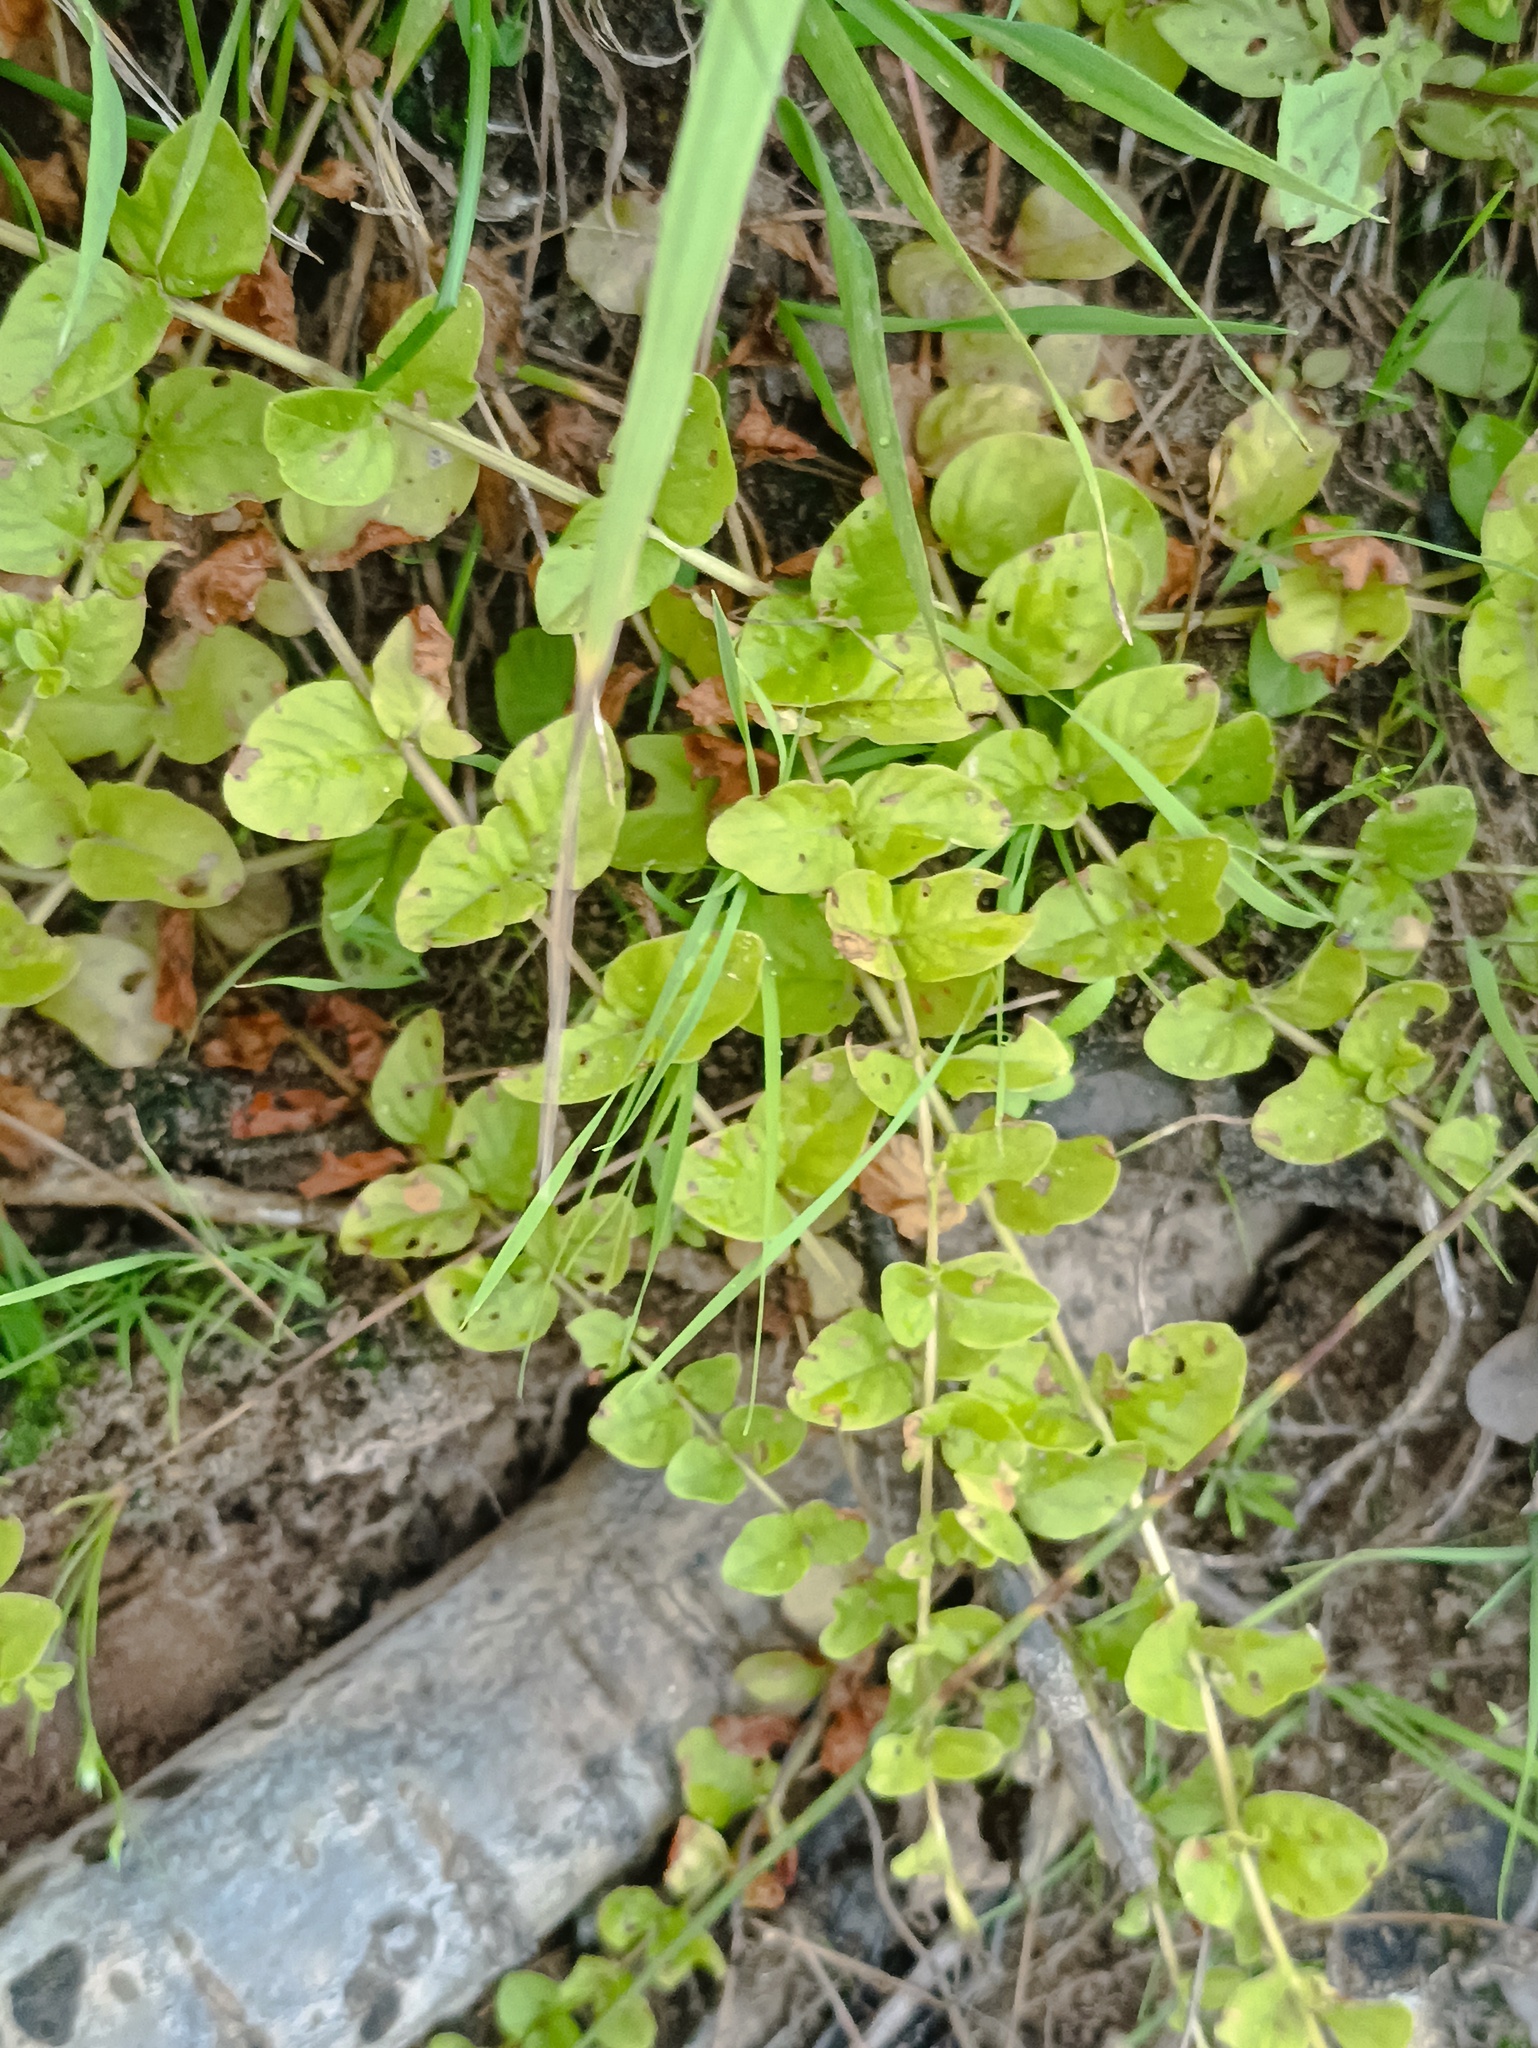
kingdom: Plantae
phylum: Tracheophyta
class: Magnoliopsida
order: Ericales
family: Primulaceae
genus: Lysimachia
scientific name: Lysimachia nummularia
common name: Moneywort
